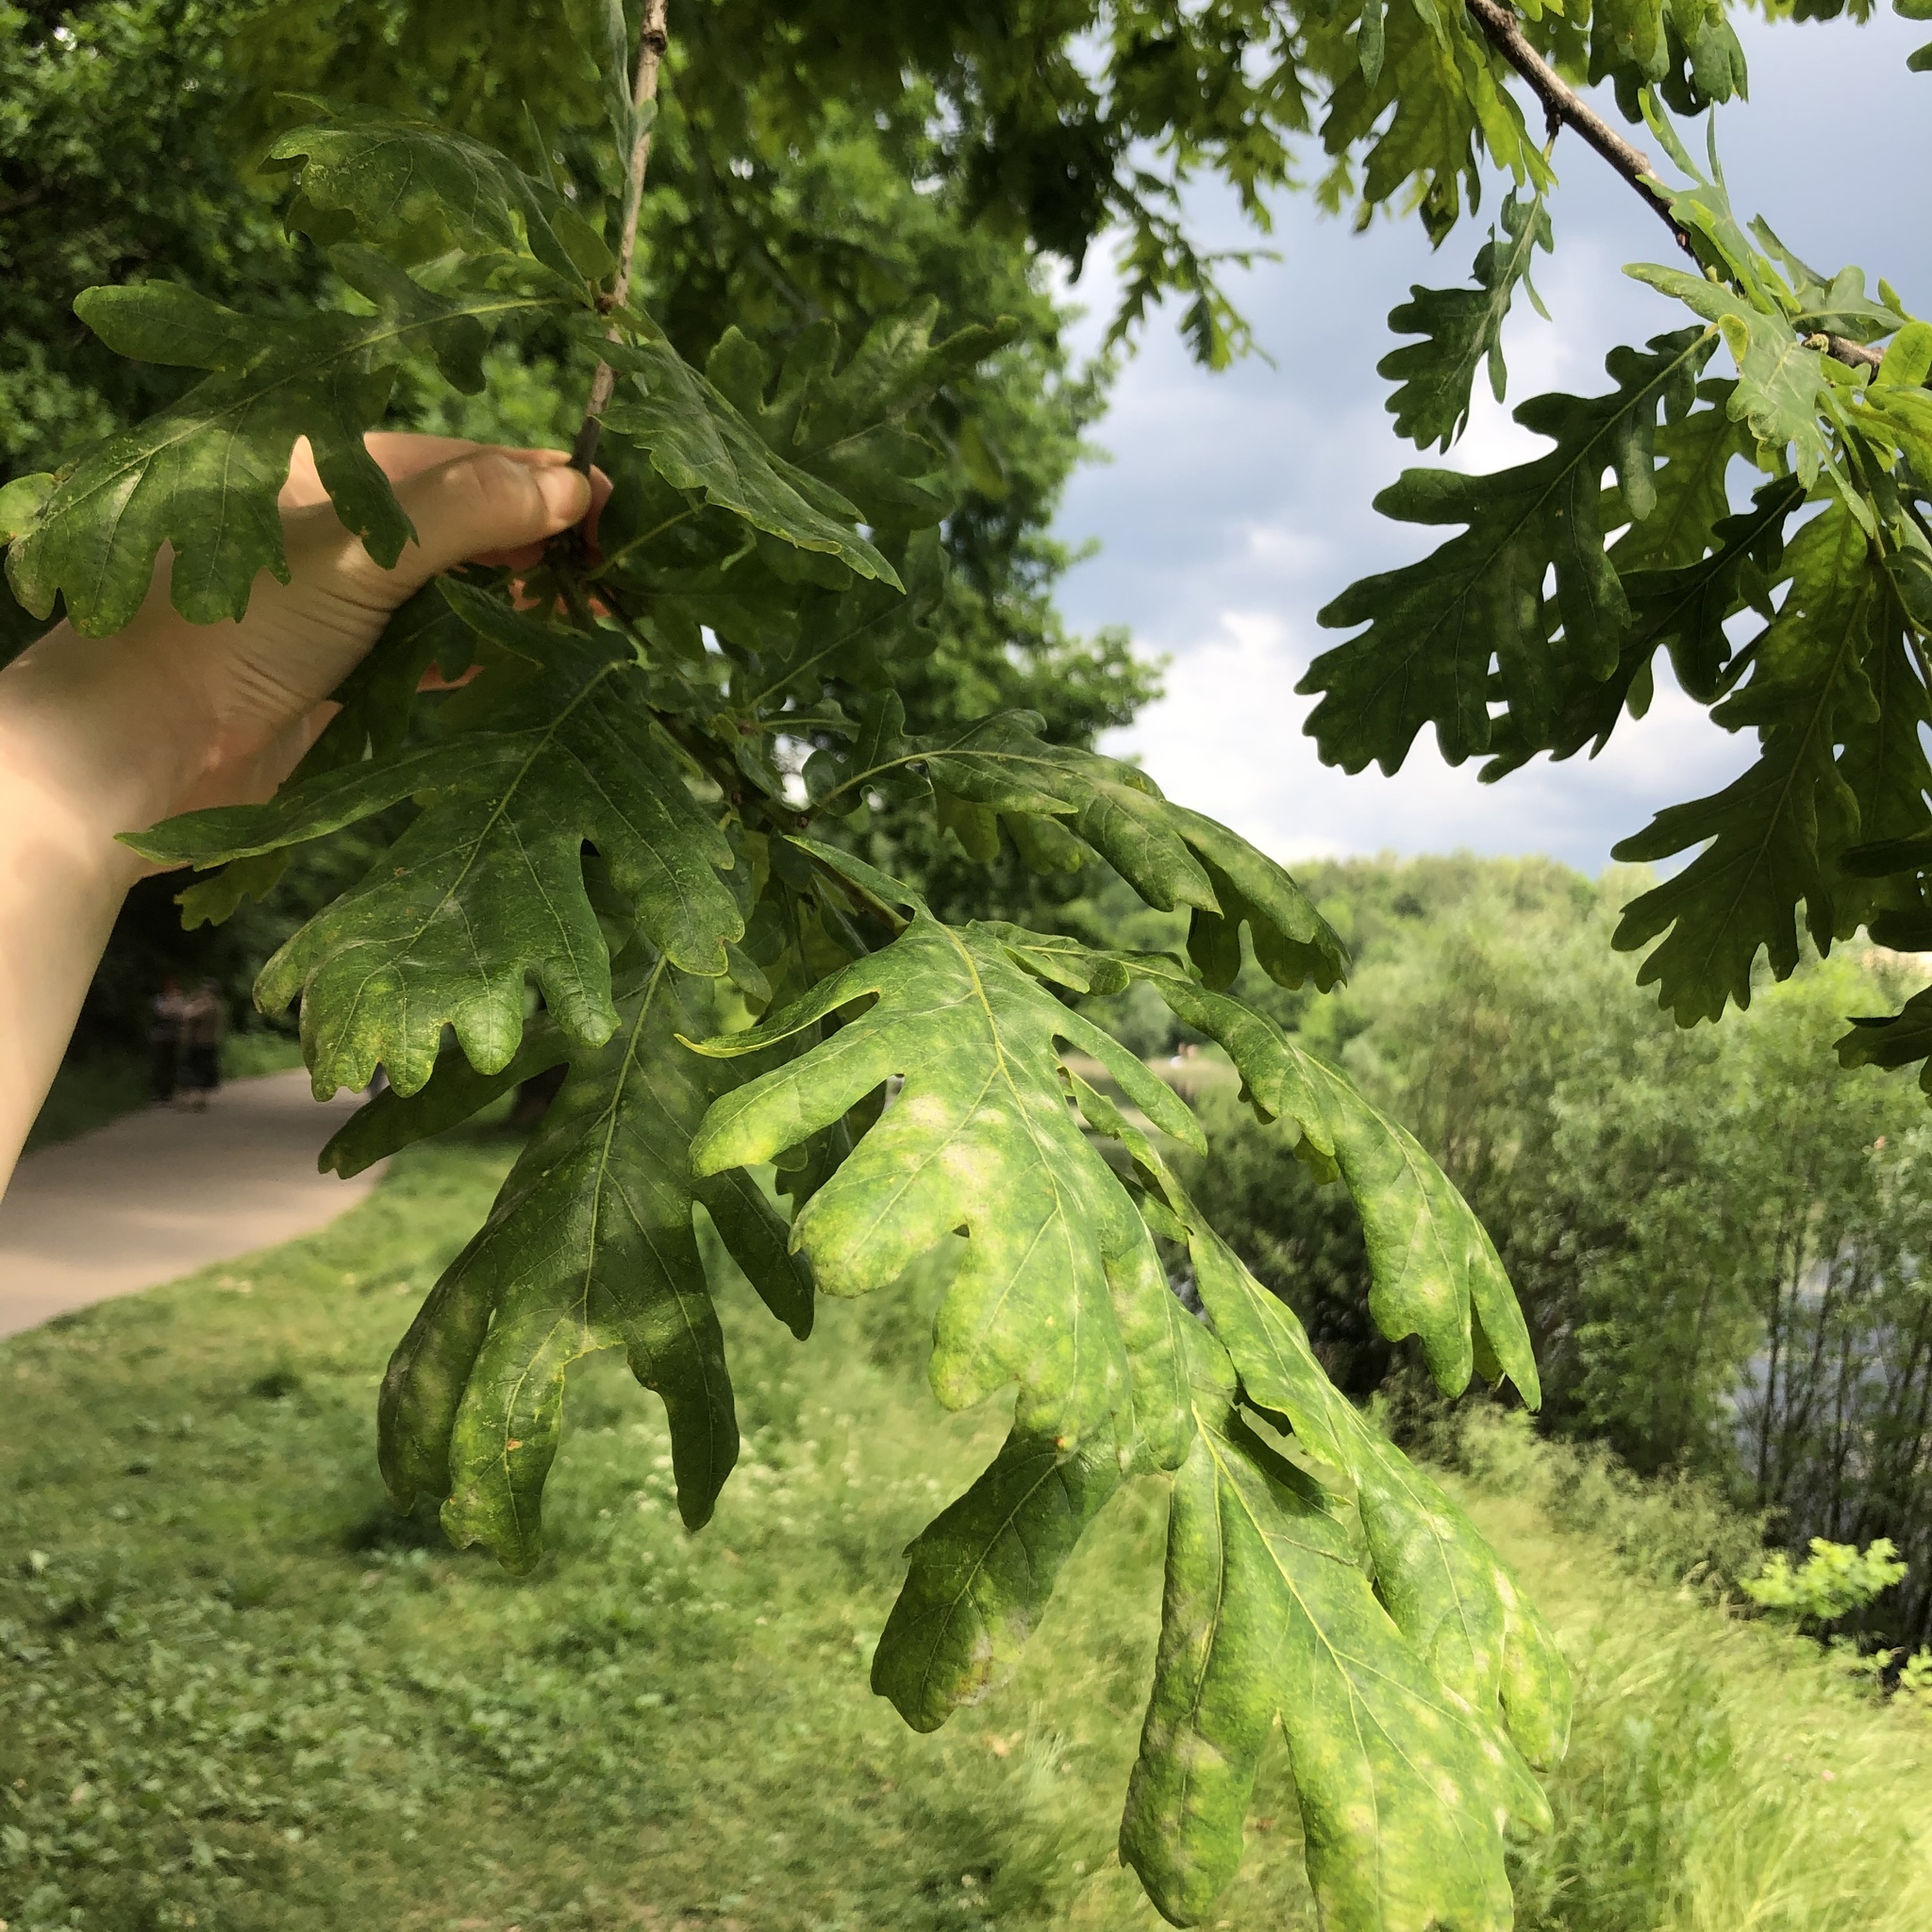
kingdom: Plantae
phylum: Tracheophyta
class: Magnoliopsida
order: Fagales
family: Fagaceae
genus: Quercus
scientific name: Quercus robur
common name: Pedunculate oak
